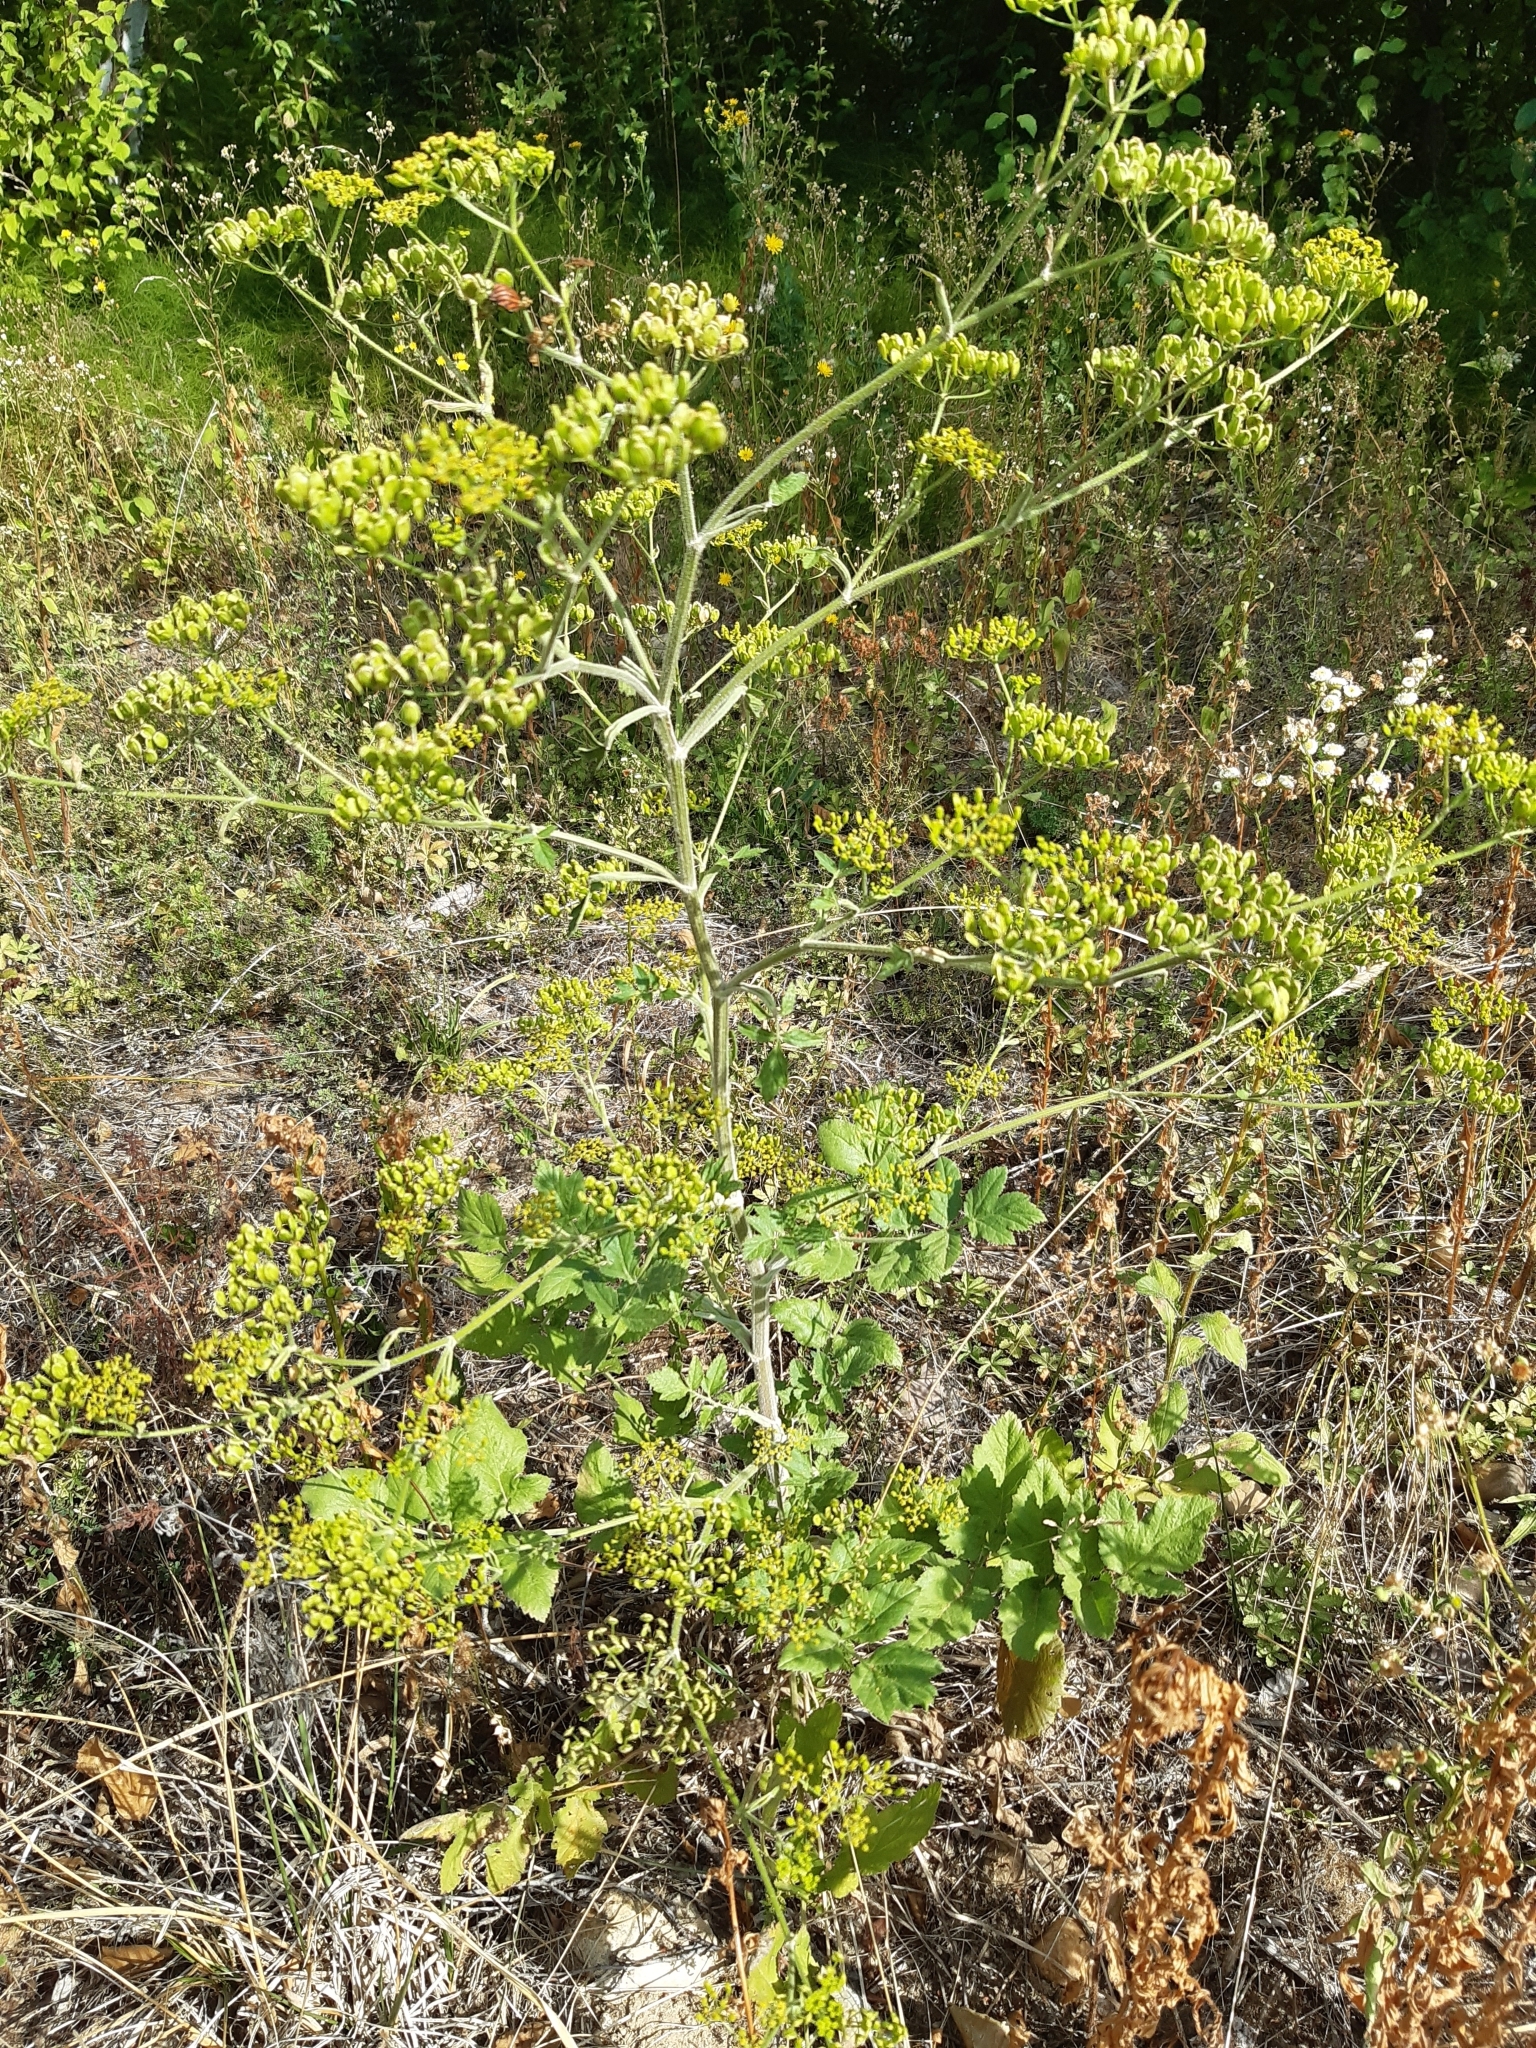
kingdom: Plantae
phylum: Tracheophyta
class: Magnoliopsida
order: Apiales
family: Apiaceae
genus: Pastinaca
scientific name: Pastinaca sativa
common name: Wild parsnip
